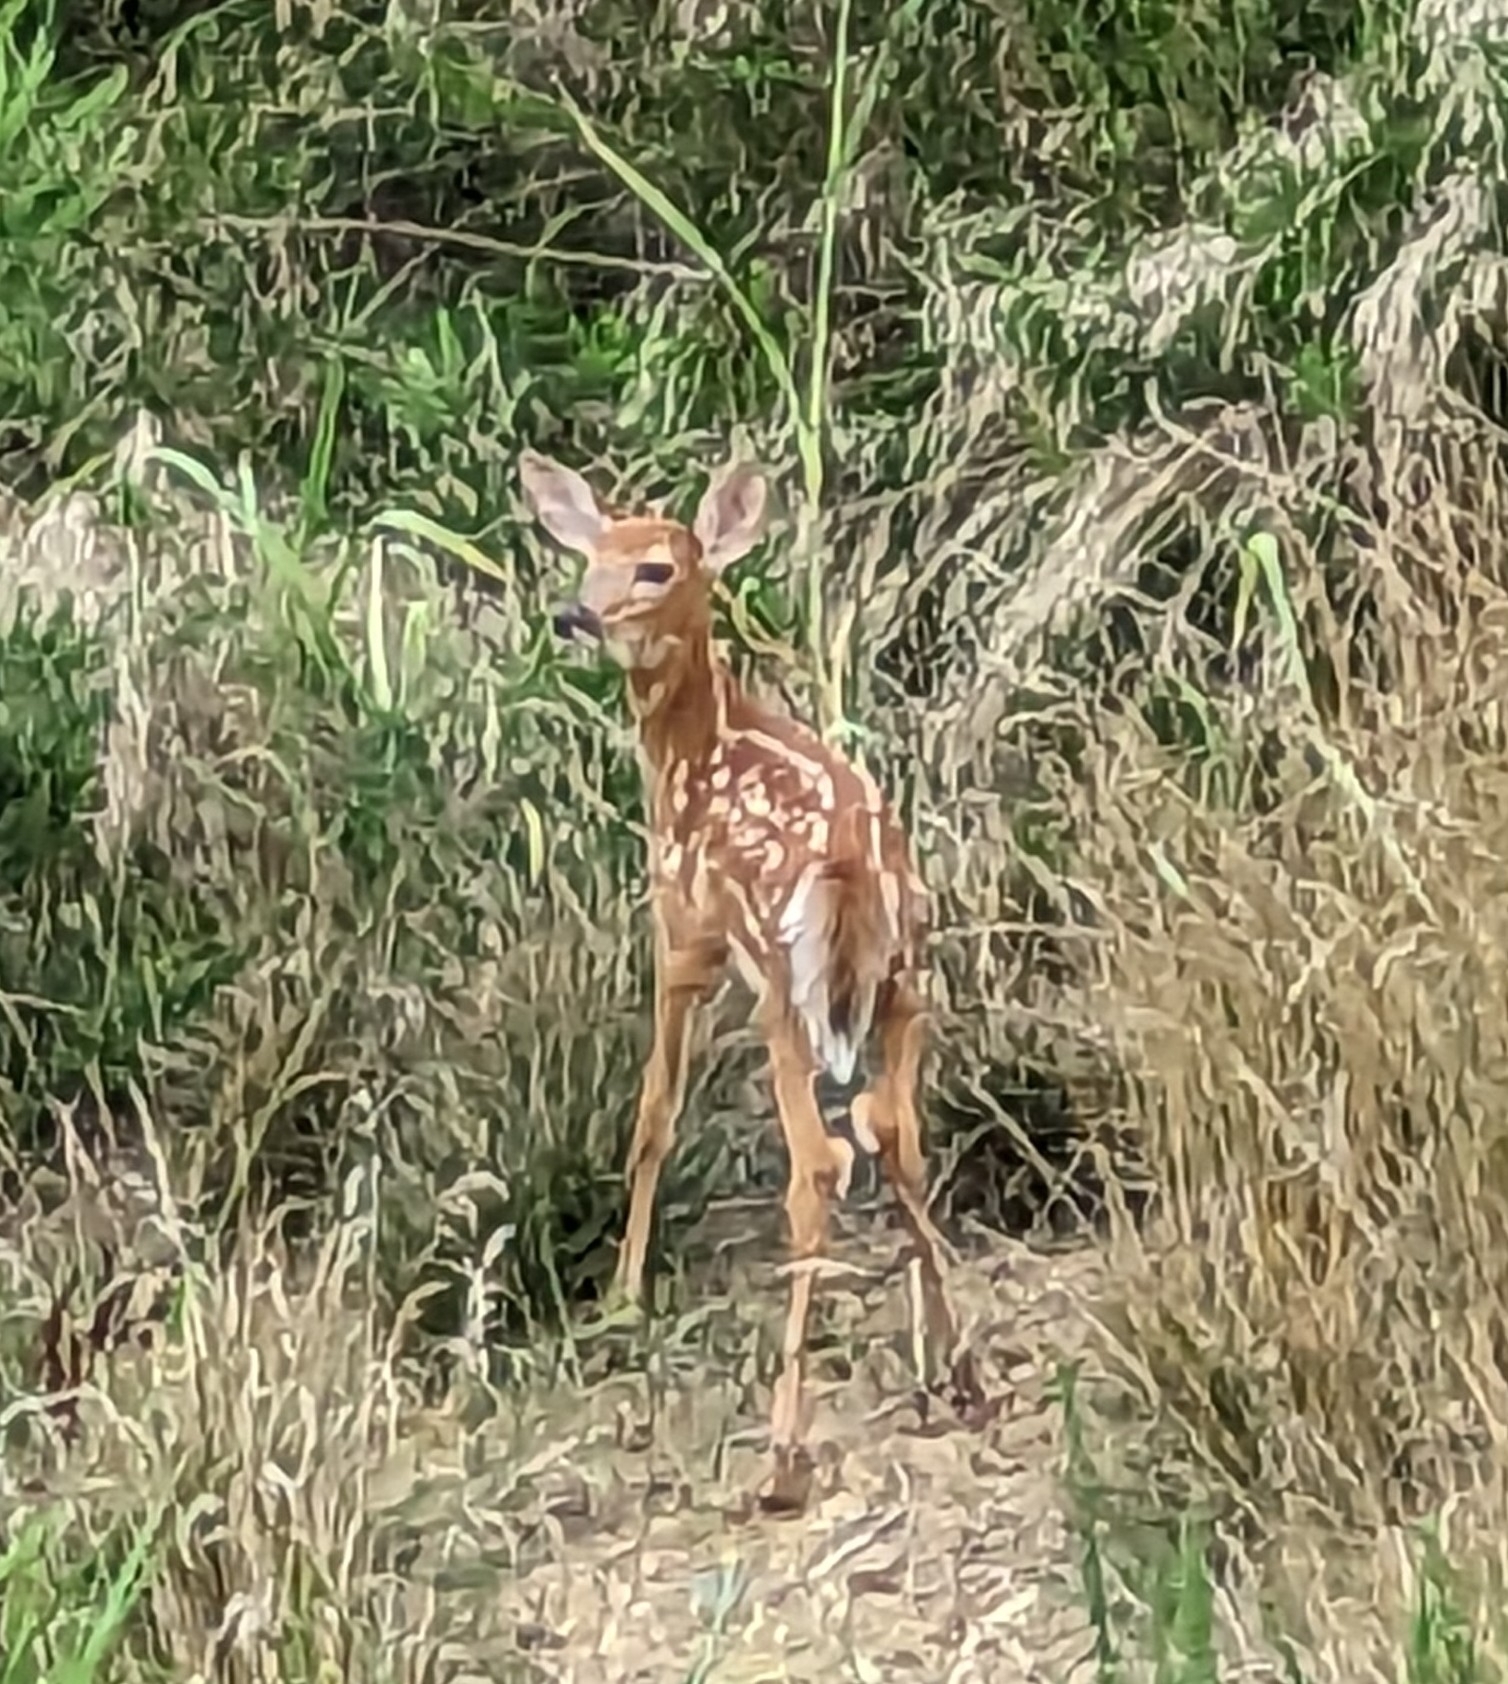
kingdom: Animalia
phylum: Chordata
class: Mammalia
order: Artiodactyla
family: Cervidae
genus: Odocoileus
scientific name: Odocoileus virginianus
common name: White-tailed deer
